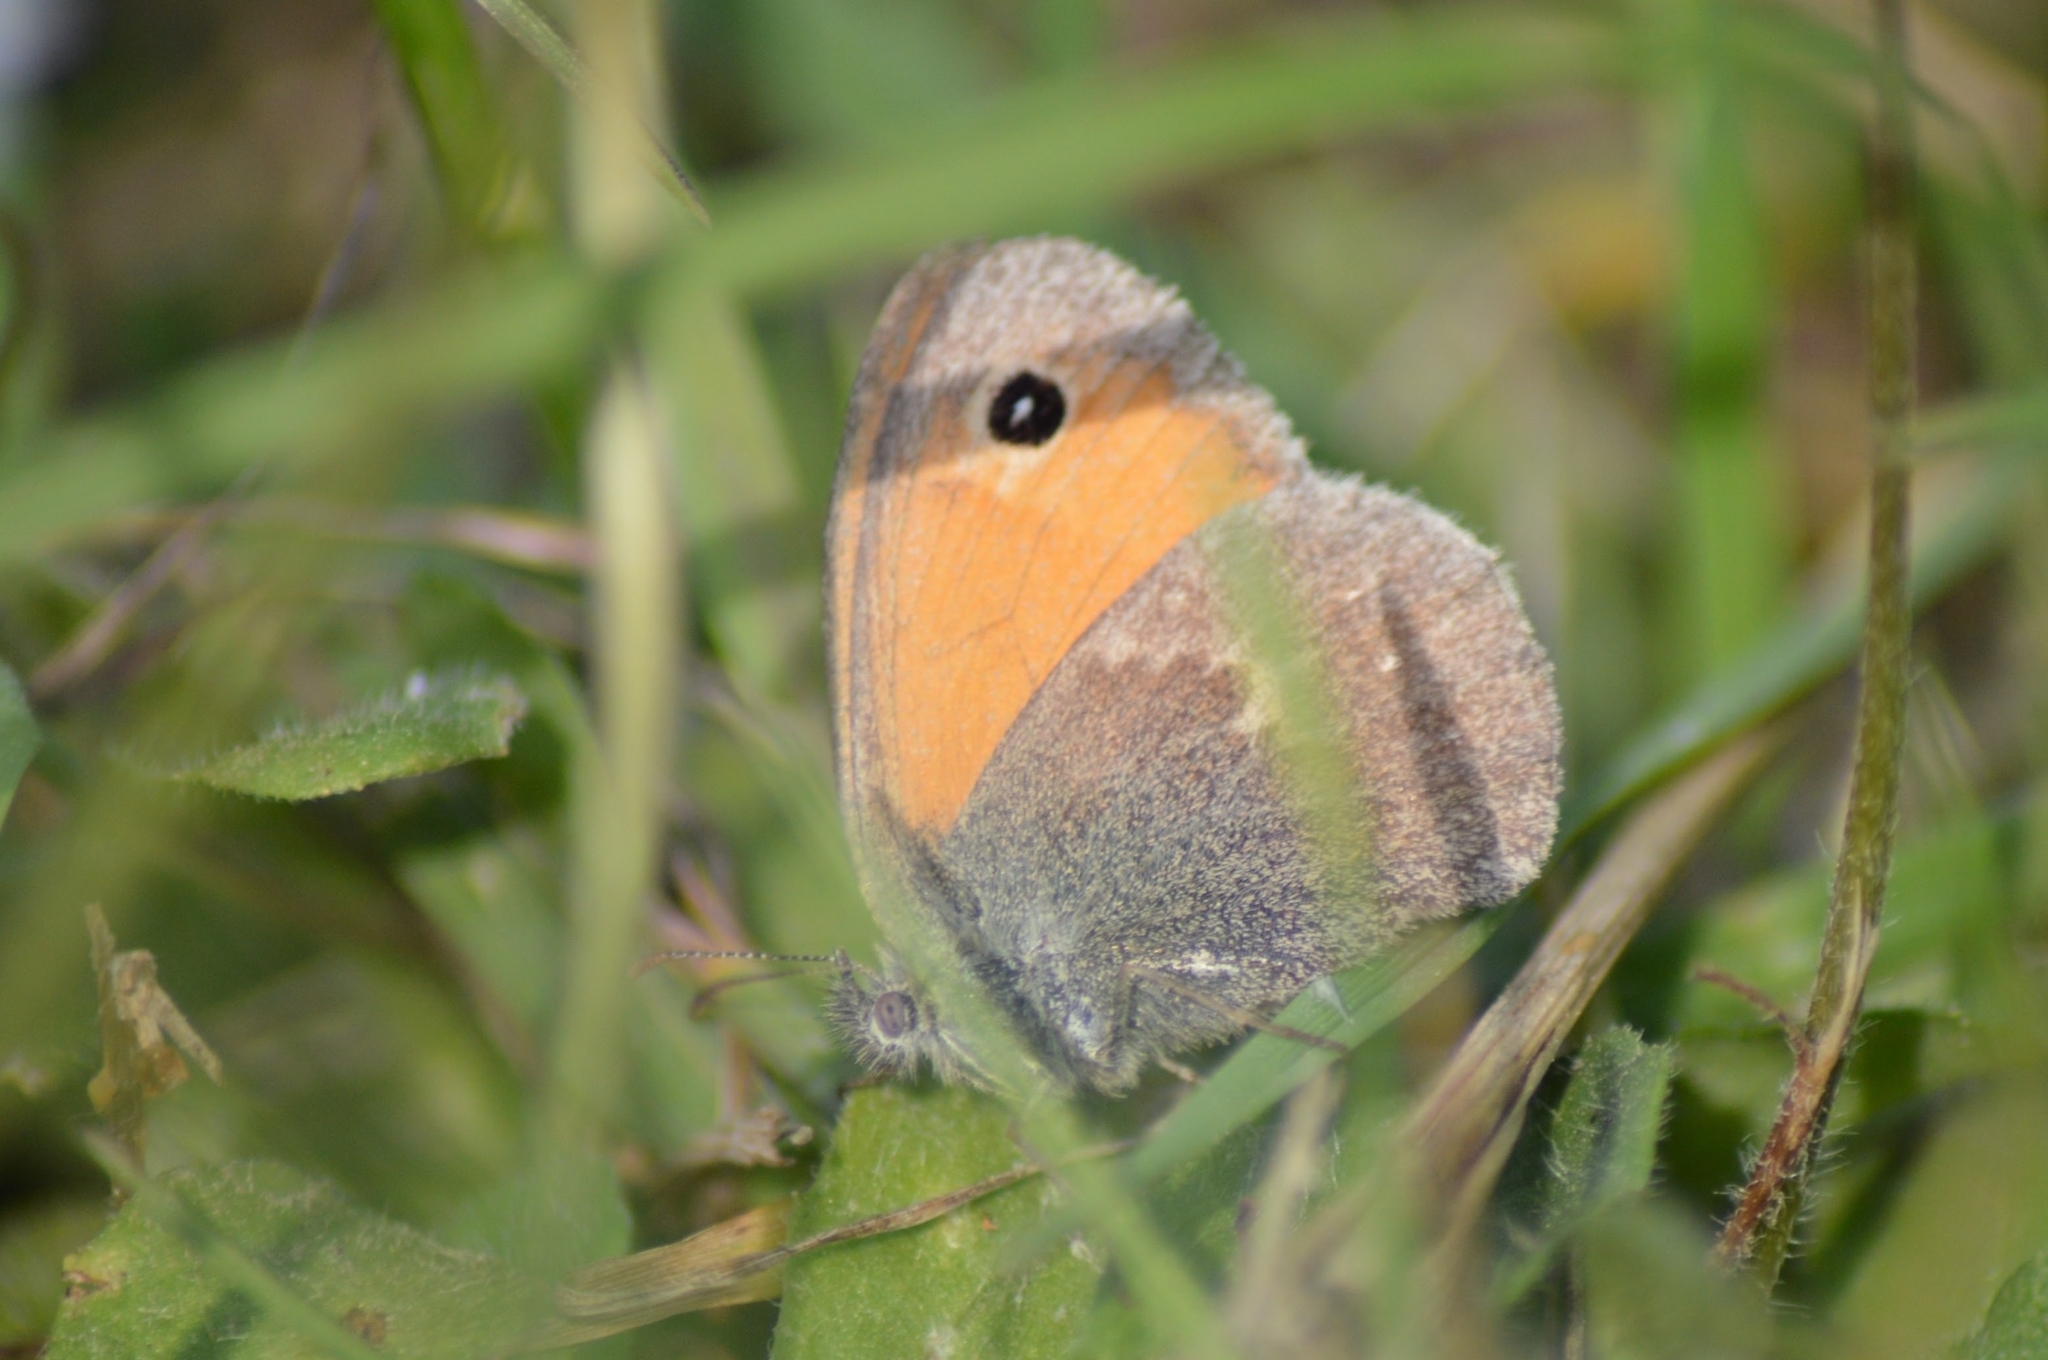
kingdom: Animalia
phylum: Arthropoda
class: Insecta
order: Lepidoptera
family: Nymphalidae
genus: Coenonympha
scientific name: Coenonympha pamphilus
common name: Small heath
